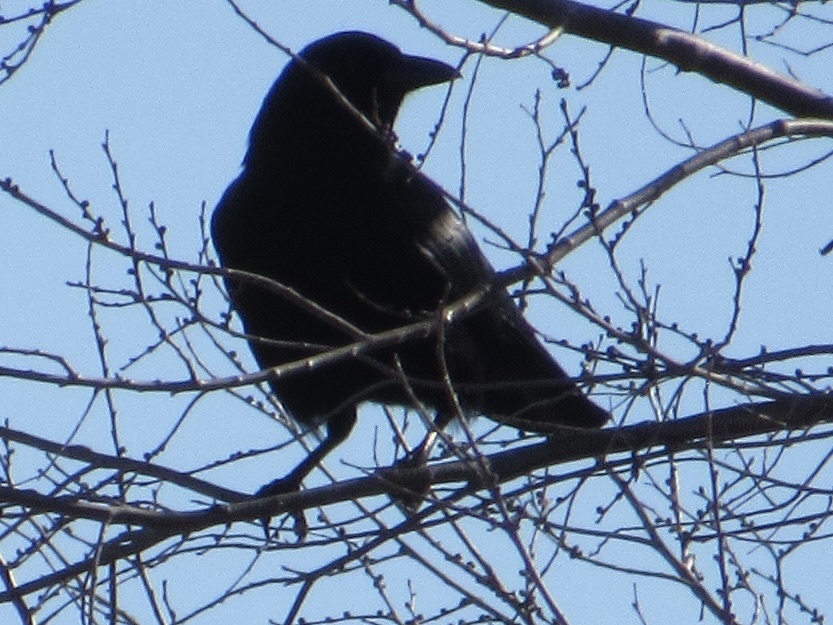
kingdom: Animalia
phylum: Chordata
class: Aves
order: Passeriformes
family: Corvidae
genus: Corvus
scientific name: Corvus brachyrhynchos
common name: American crow
